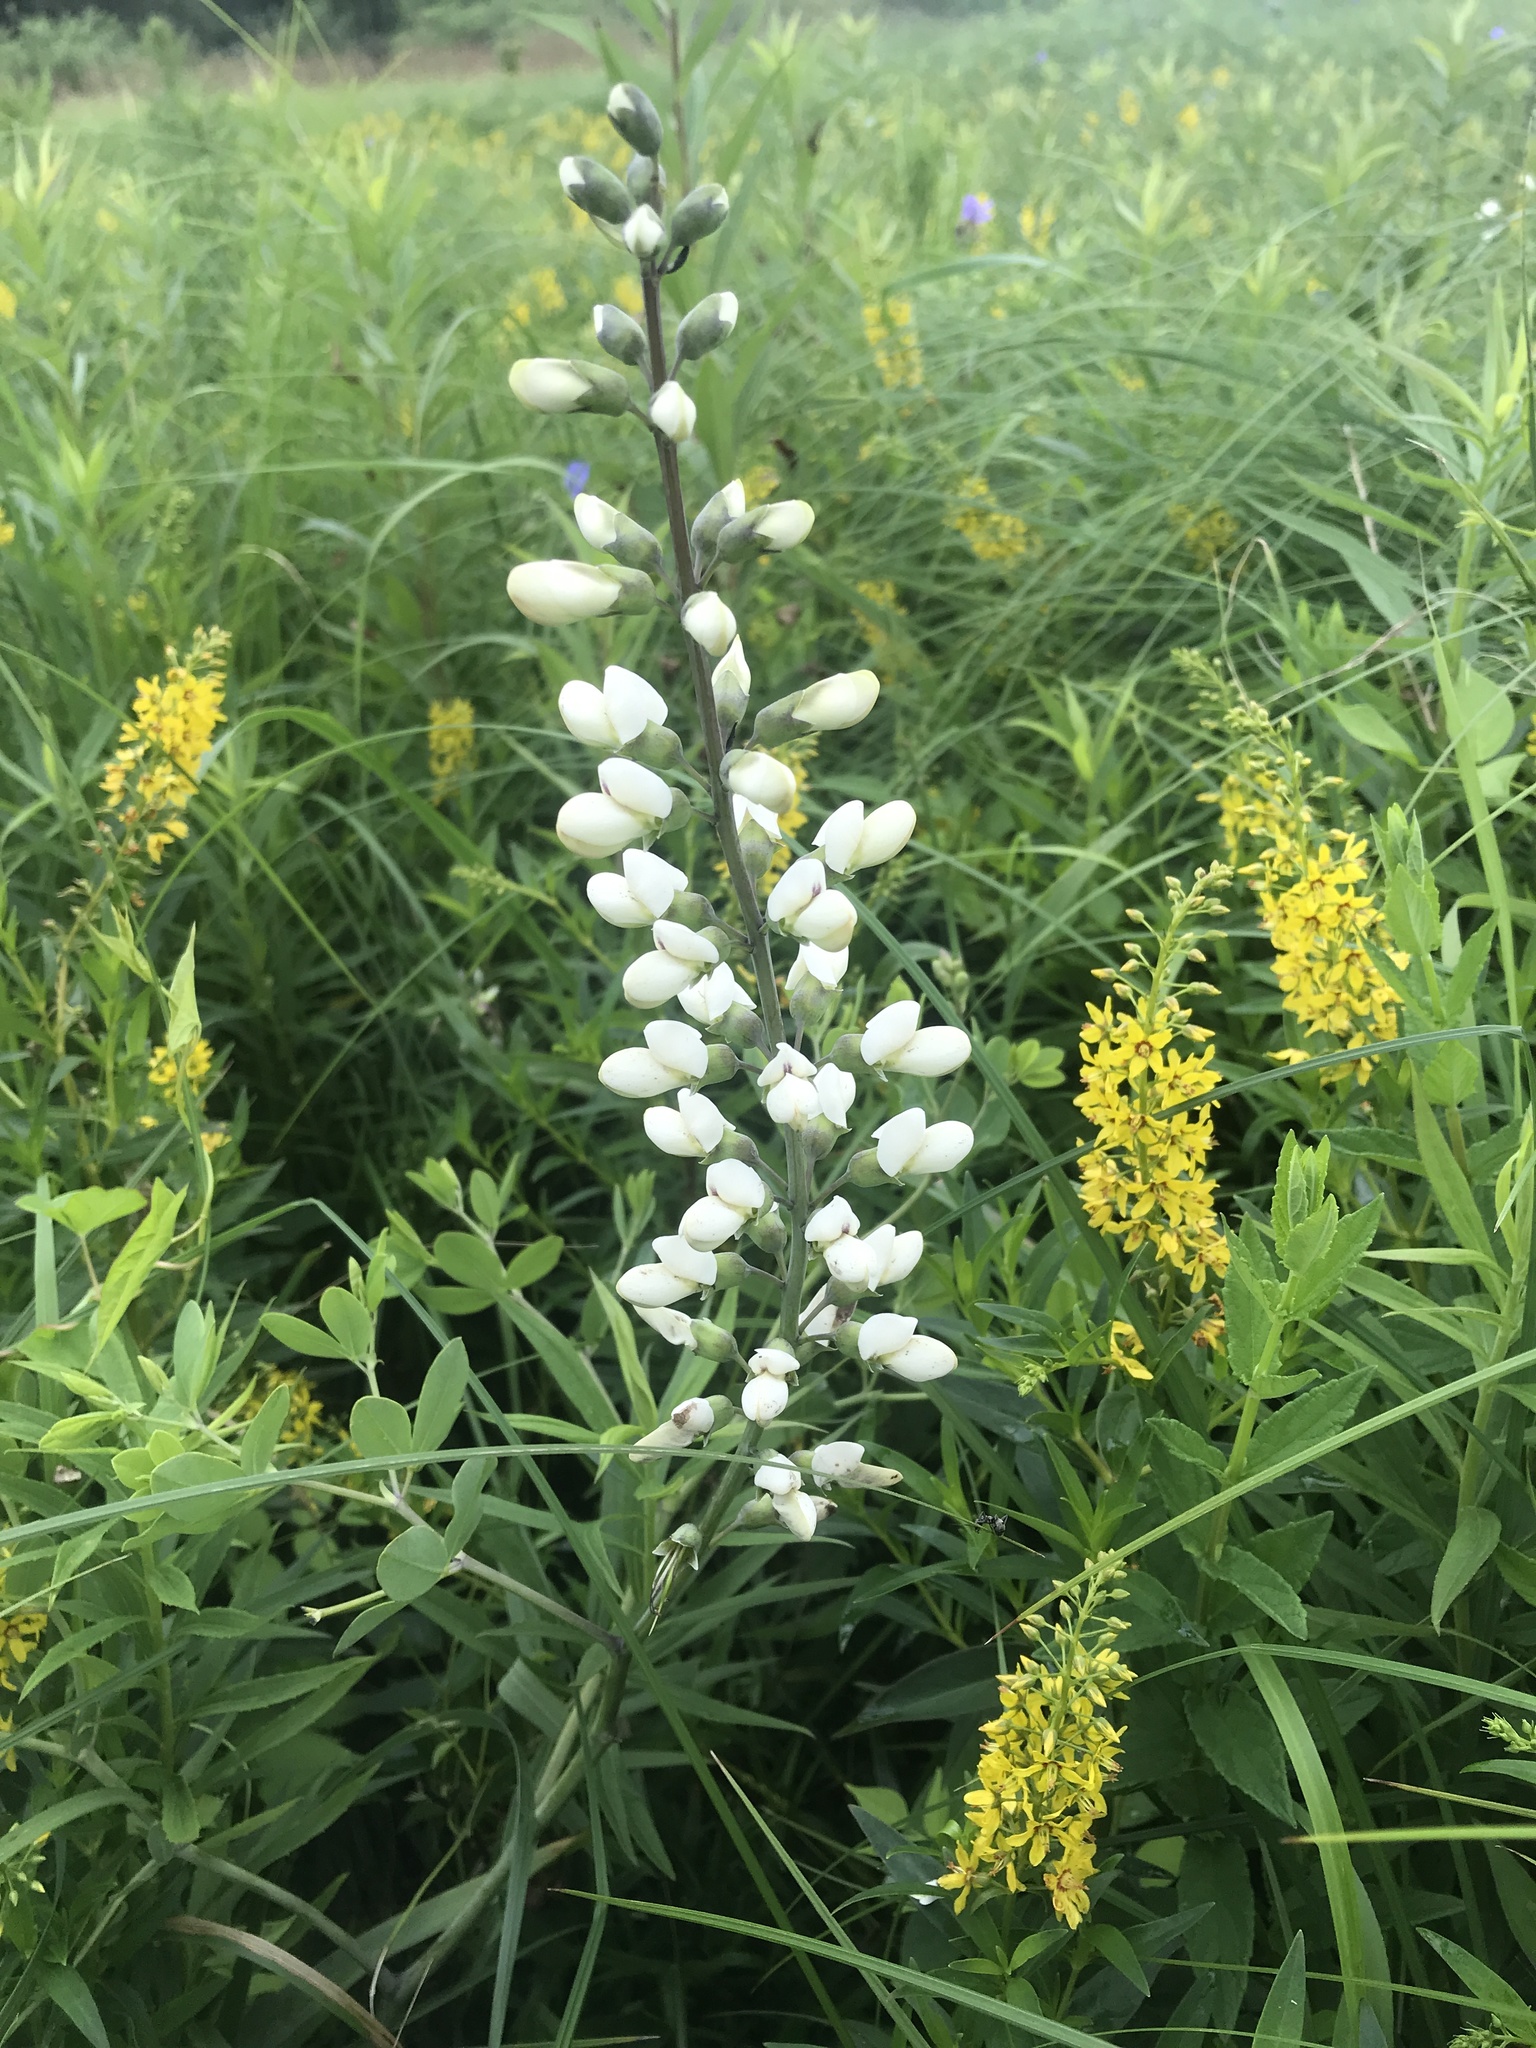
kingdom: Plantae
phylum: Tracheophyta
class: Magnoliopsida
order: Fabales
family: Fabaceae
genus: Baptisia
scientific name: Baptisia alba
